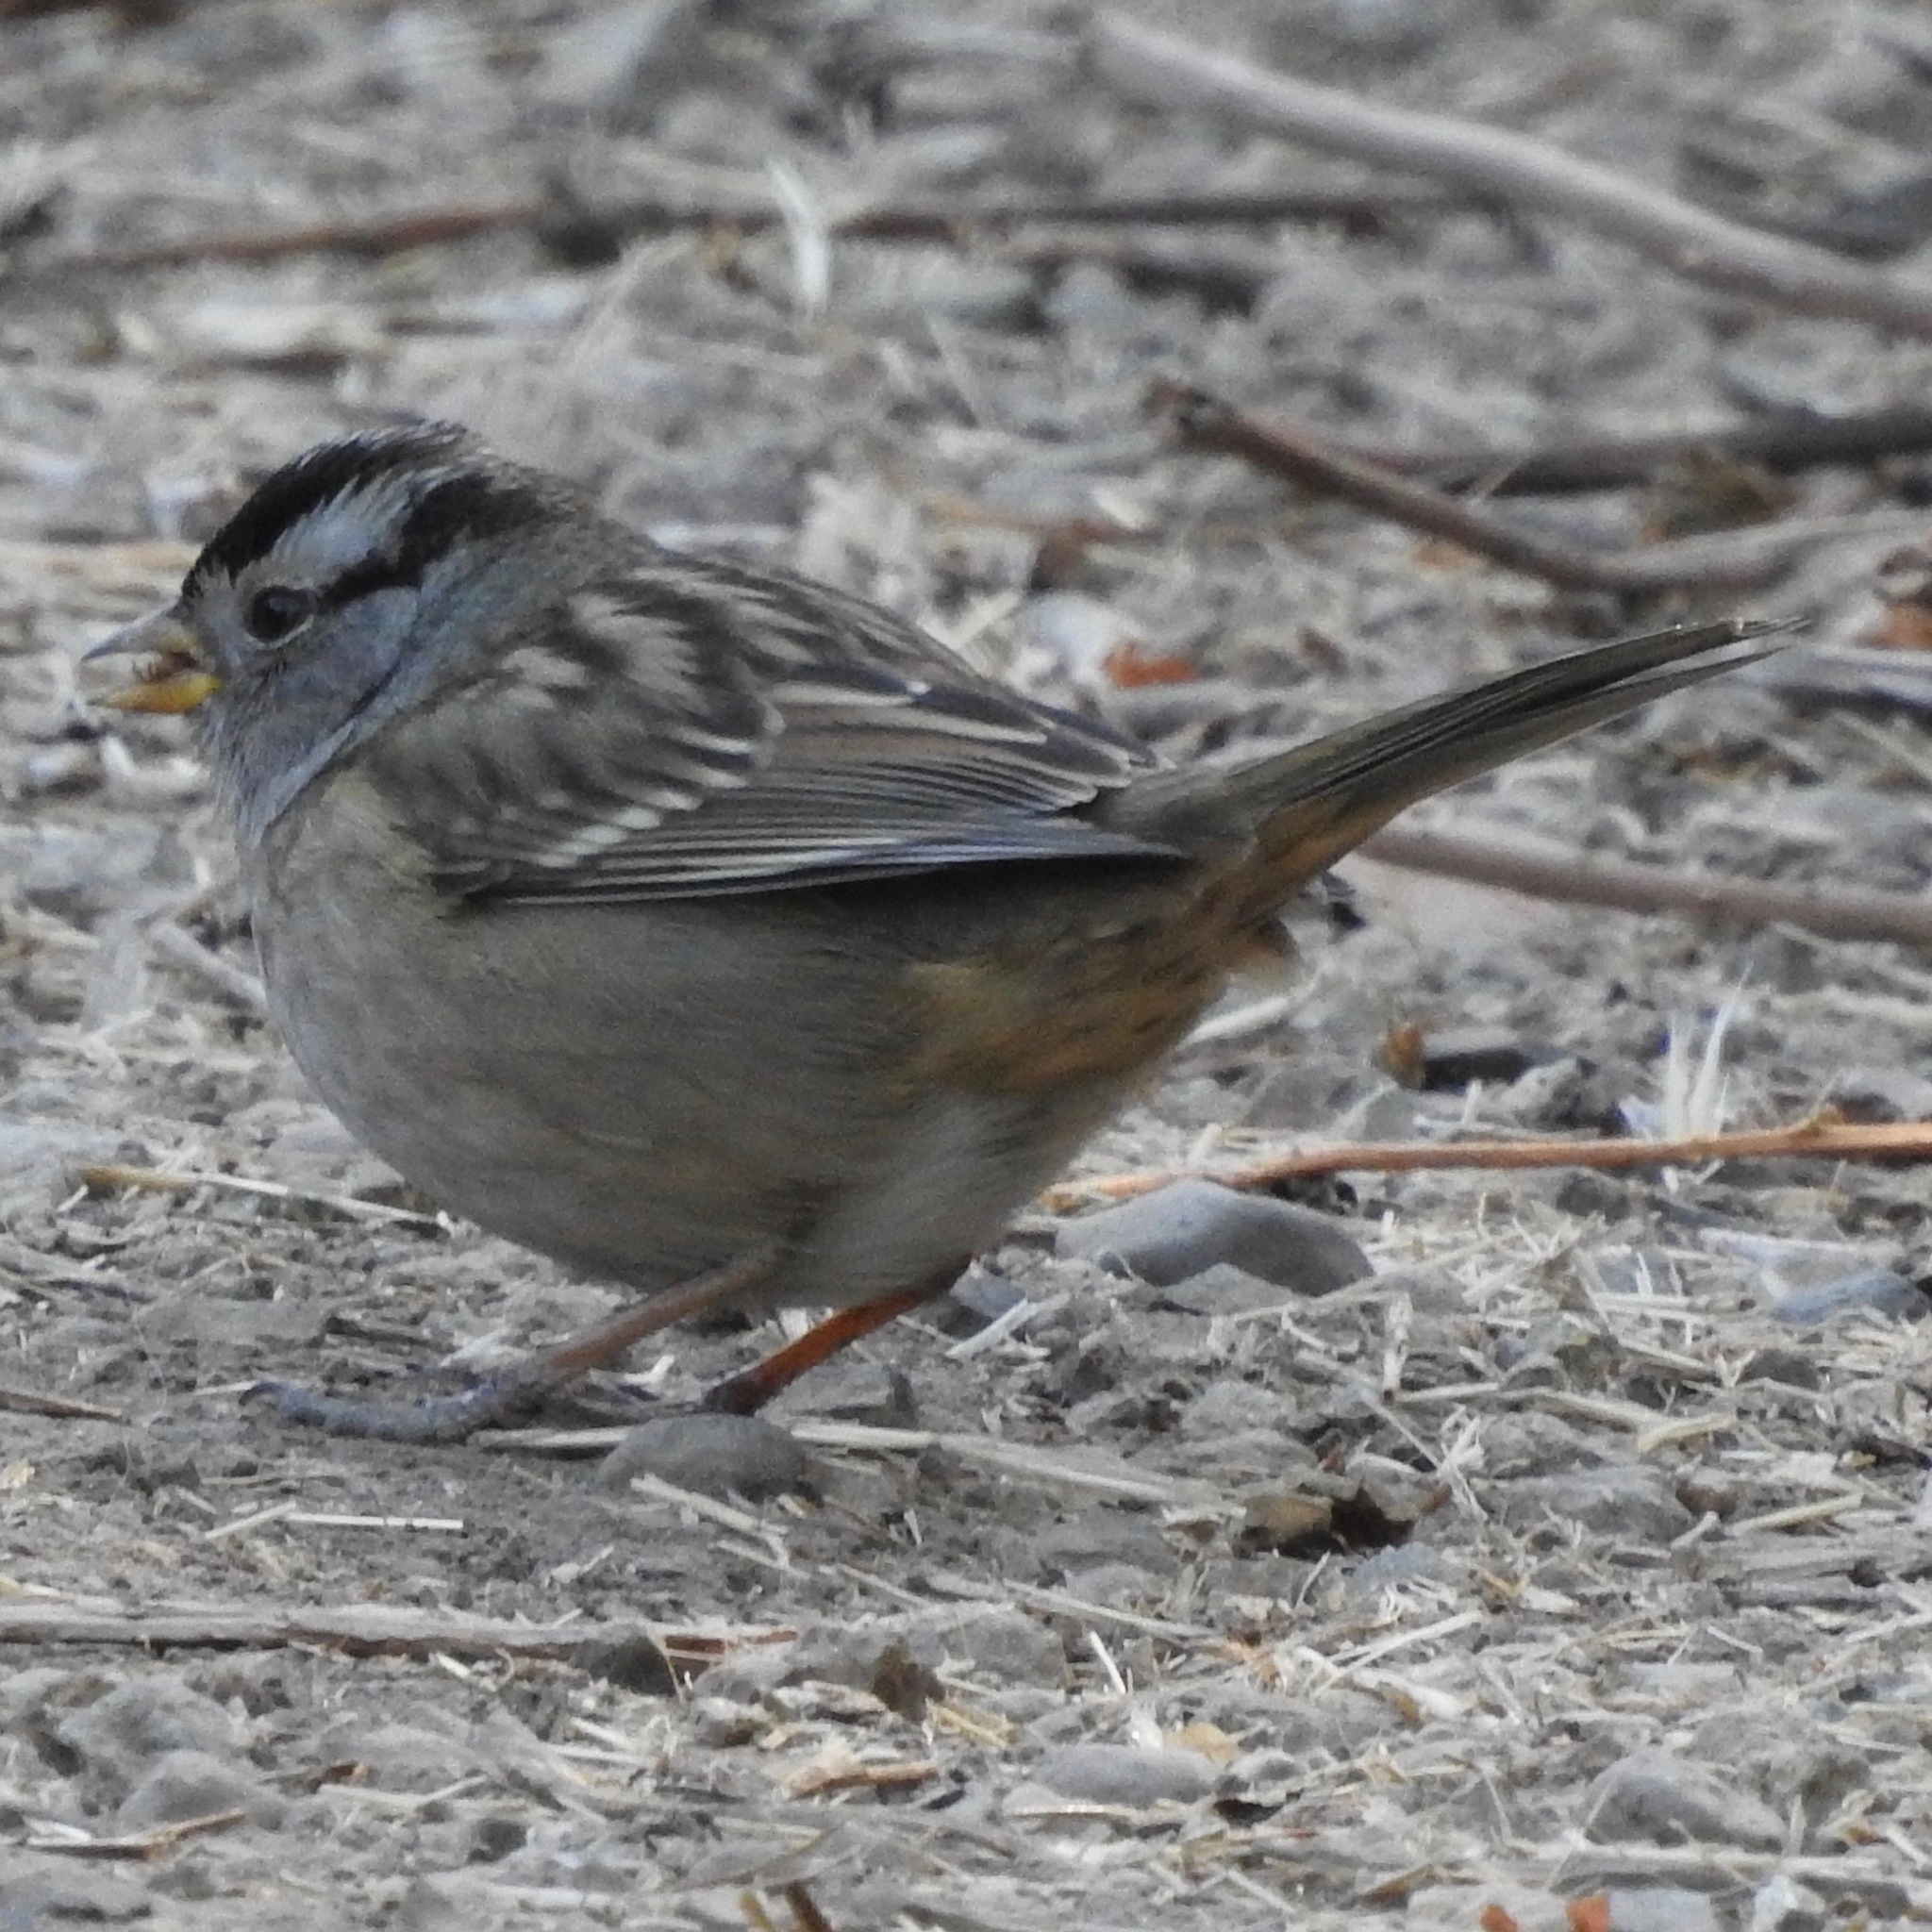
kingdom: Animalia
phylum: Chordata
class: Aves
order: Passeriformes
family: Passerellidae
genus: Zonotrichia
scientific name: Zonotrichia leucophrys
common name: White-crowned sparrow
